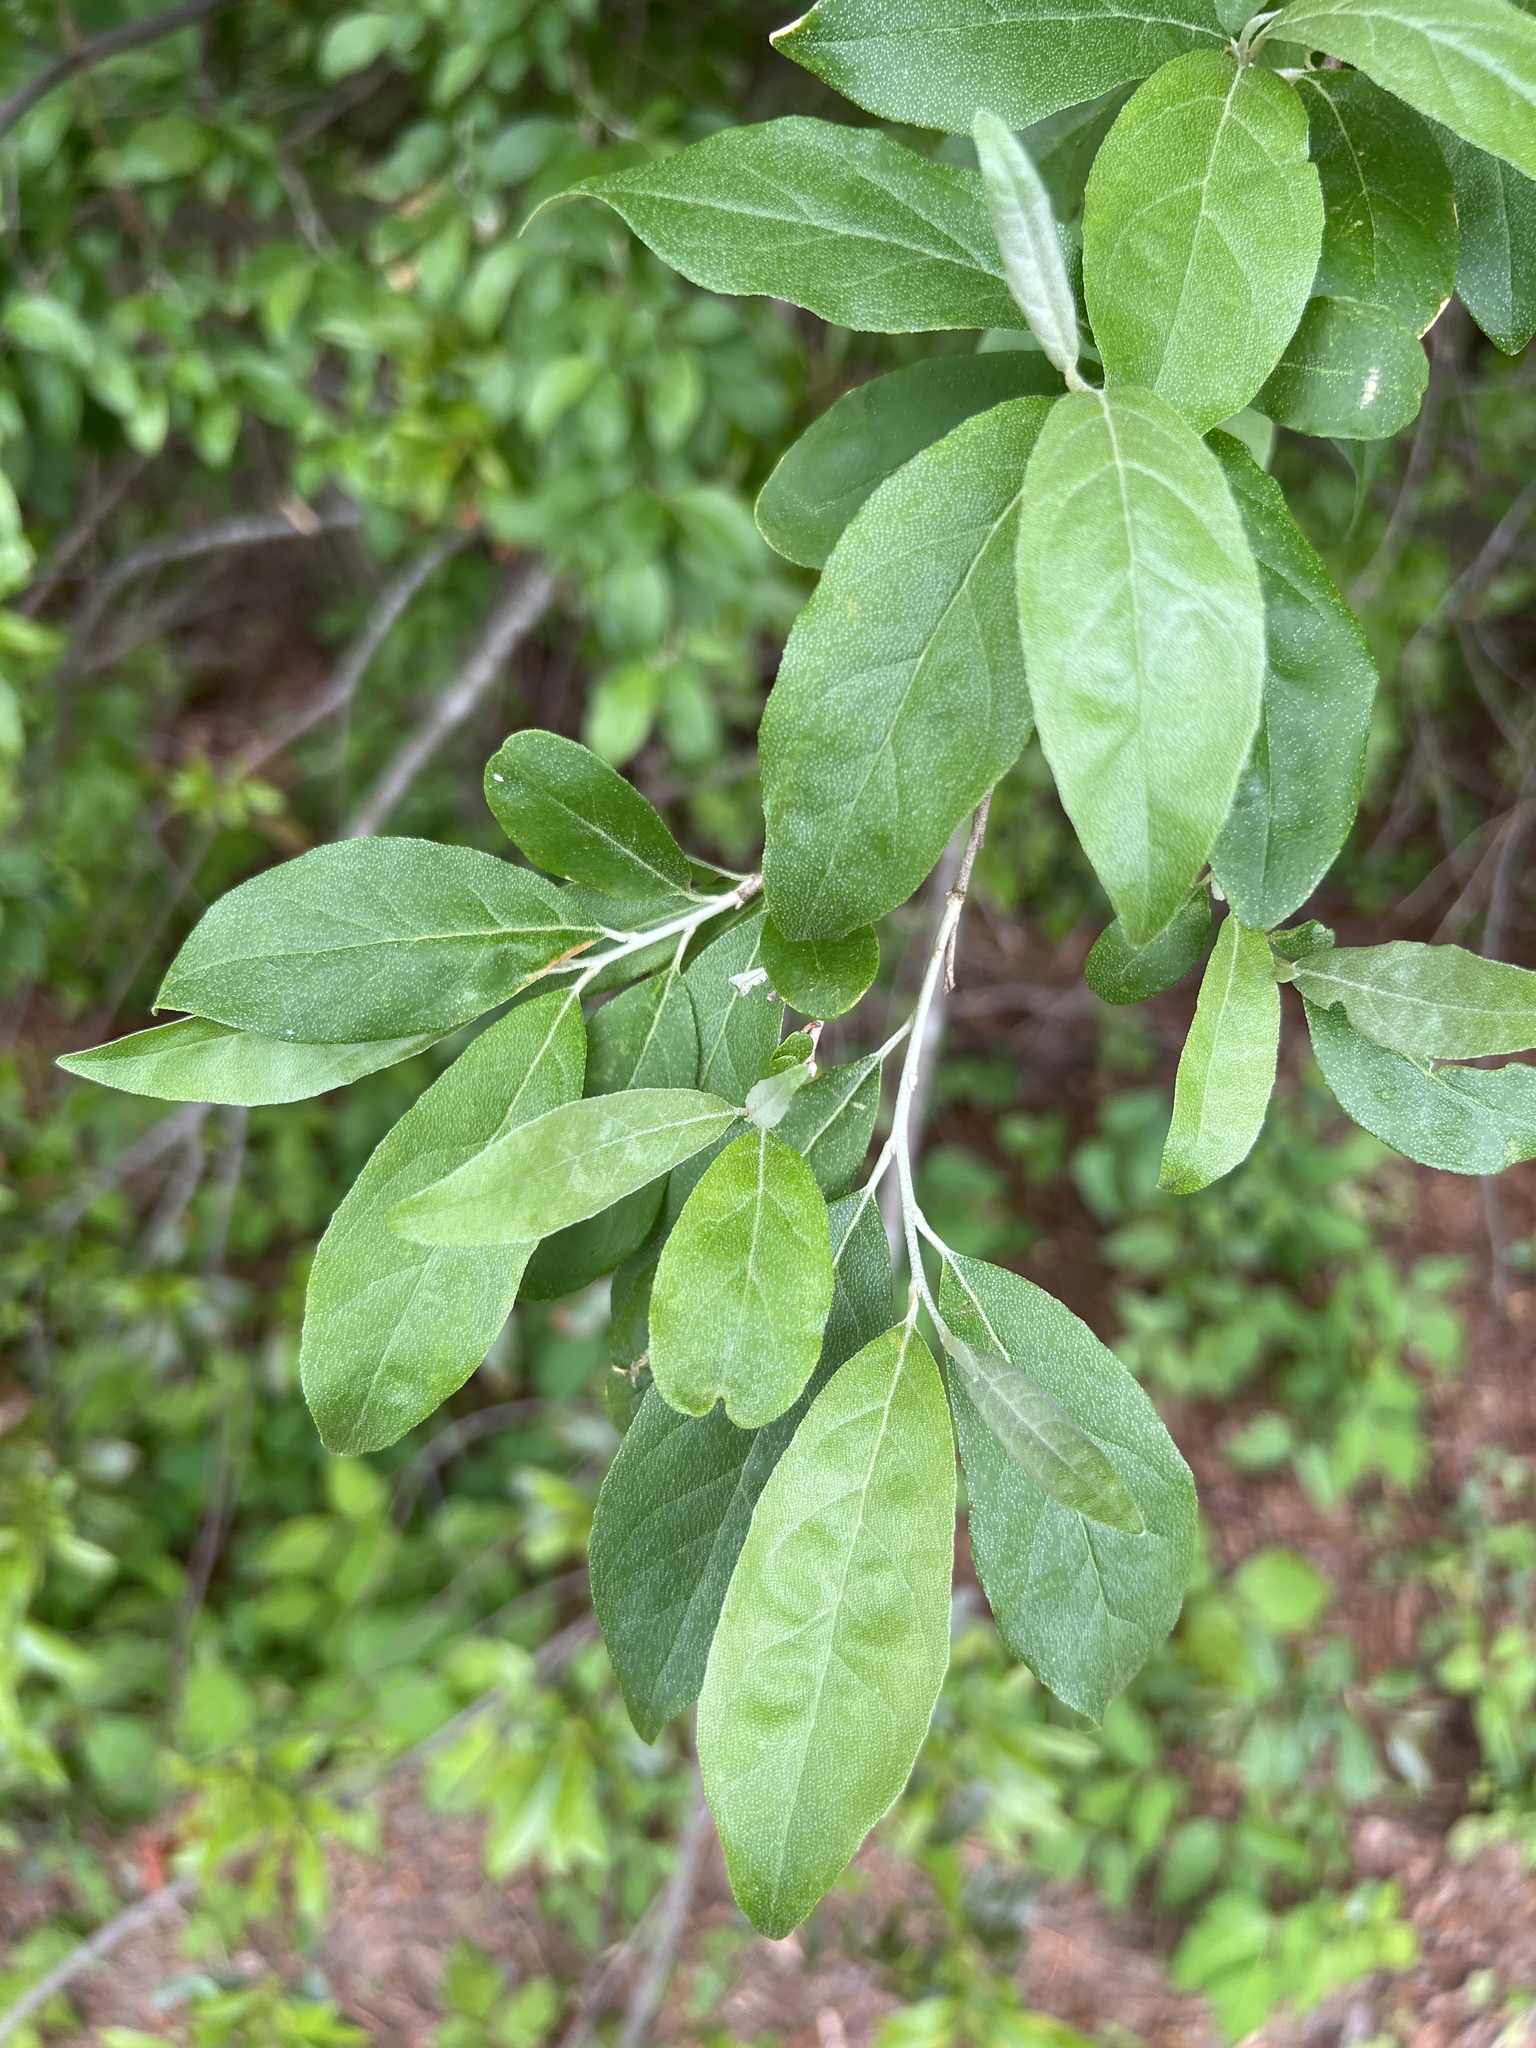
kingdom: Plantae
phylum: Tracheophyta
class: Magnoliopsida
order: Rosales
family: Elaeagnaceae
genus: Elaeagnus
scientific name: Elaeagnus umbellata
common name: Autumn olive
